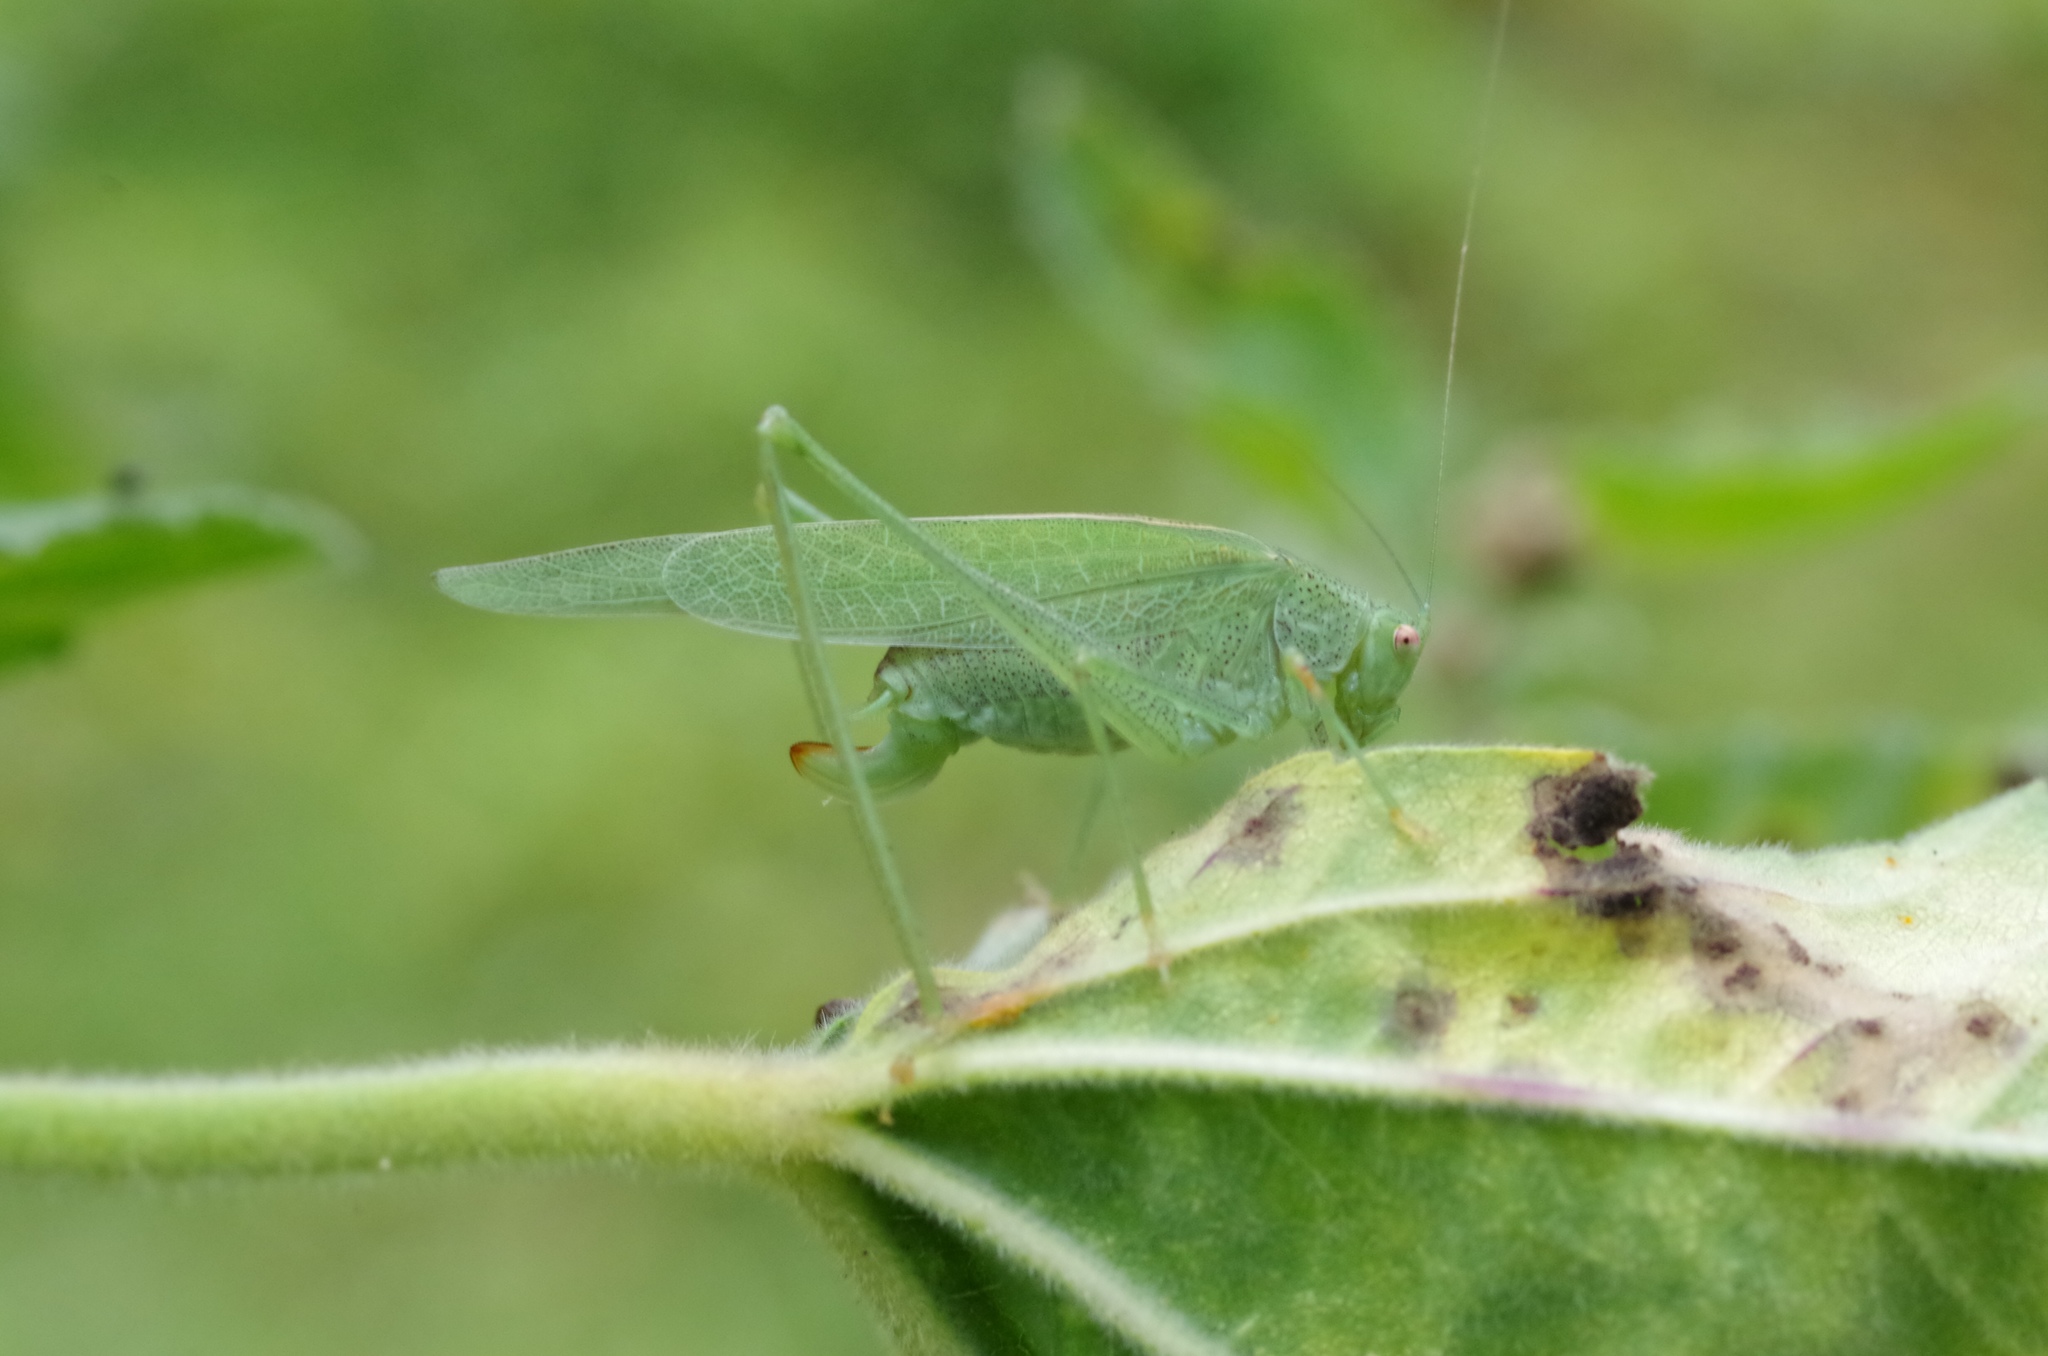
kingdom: Animalia
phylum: Arthropoda
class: Insecta
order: Orthoptera
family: Tettigoniidae
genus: Phaneroptera
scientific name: Phaneroptera nana
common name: Southern sickle bush-cricket
